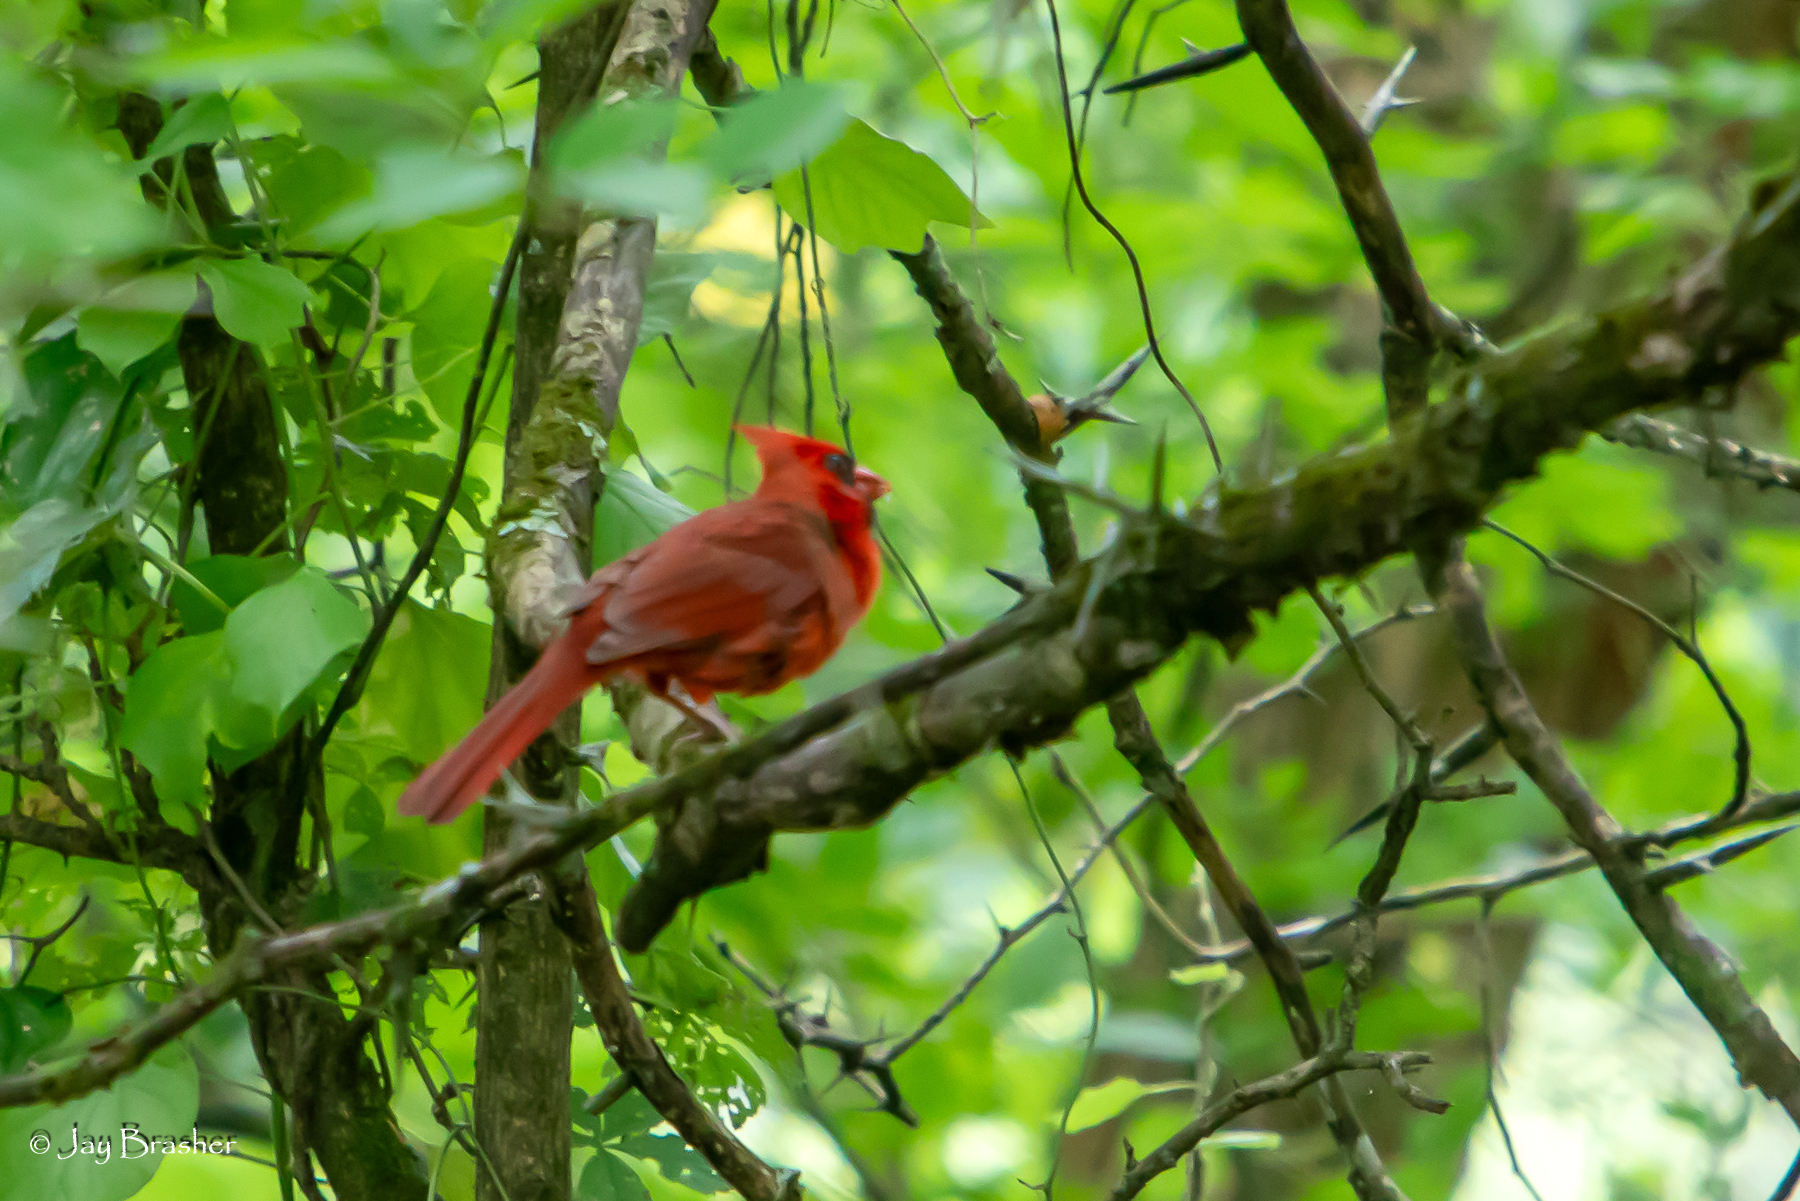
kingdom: Animalia
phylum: Chordata
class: Aves
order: Passeriformes
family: Cardinalidae
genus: Cardinalis
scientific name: Cardinalis cardinalis
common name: Northern cardinal
